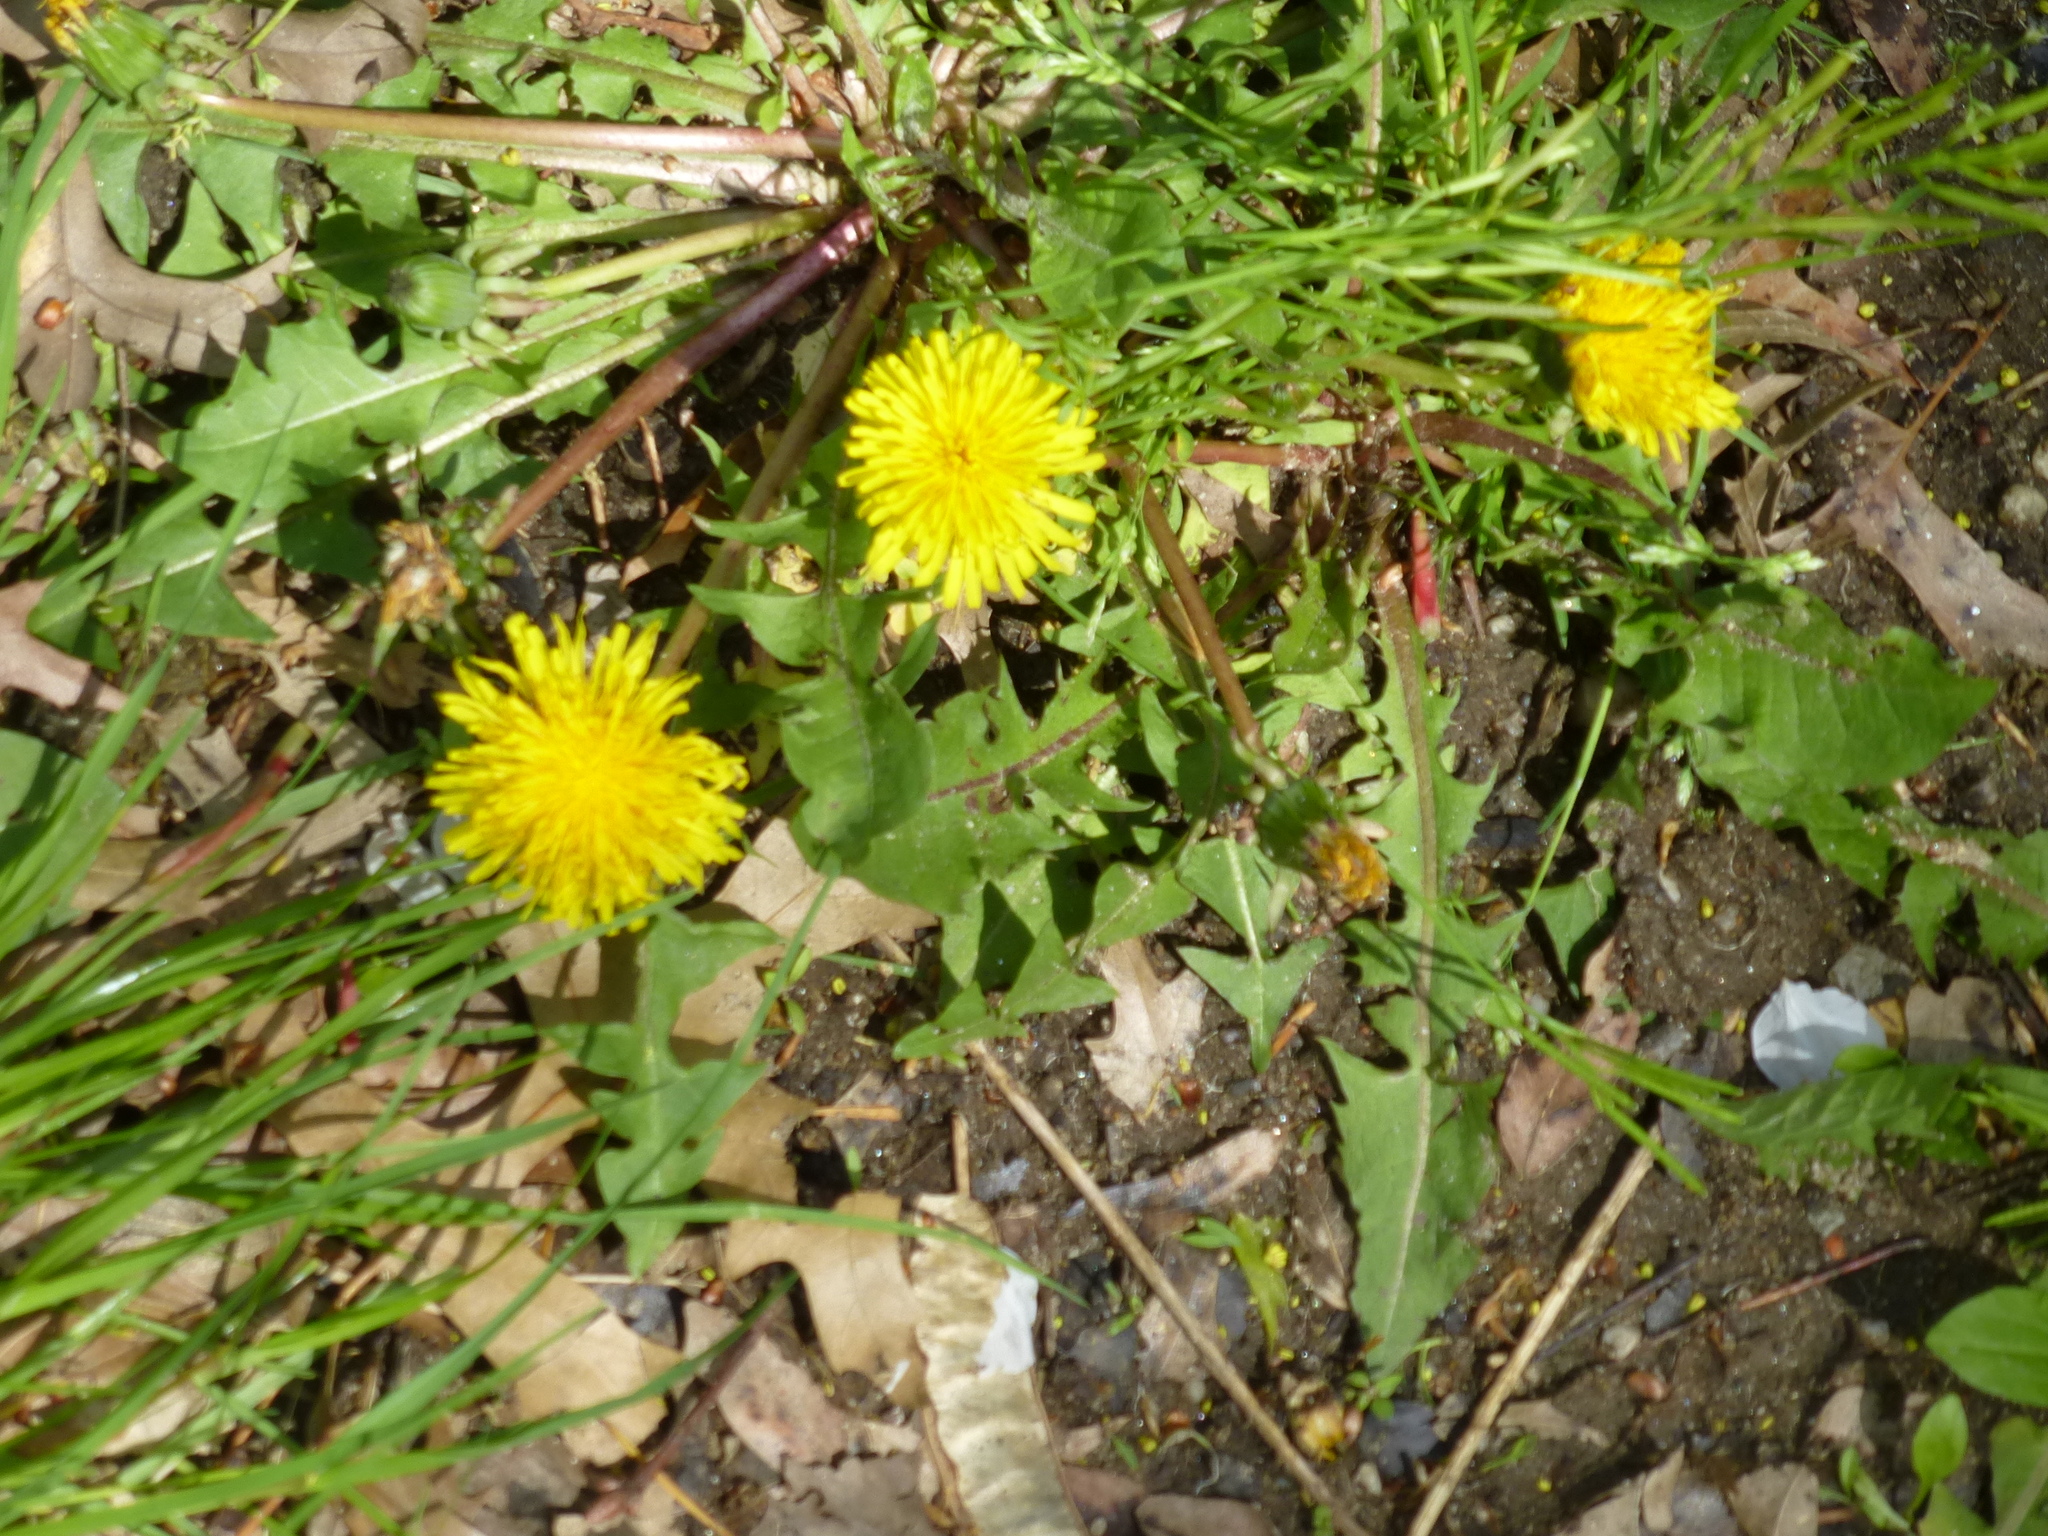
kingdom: Plantae
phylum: Tracheophyta
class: Magnoliopsida
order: Asterales
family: Asteraceae
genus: Taraxacum
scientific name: Taraxacum officinale
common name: Common dandelion
